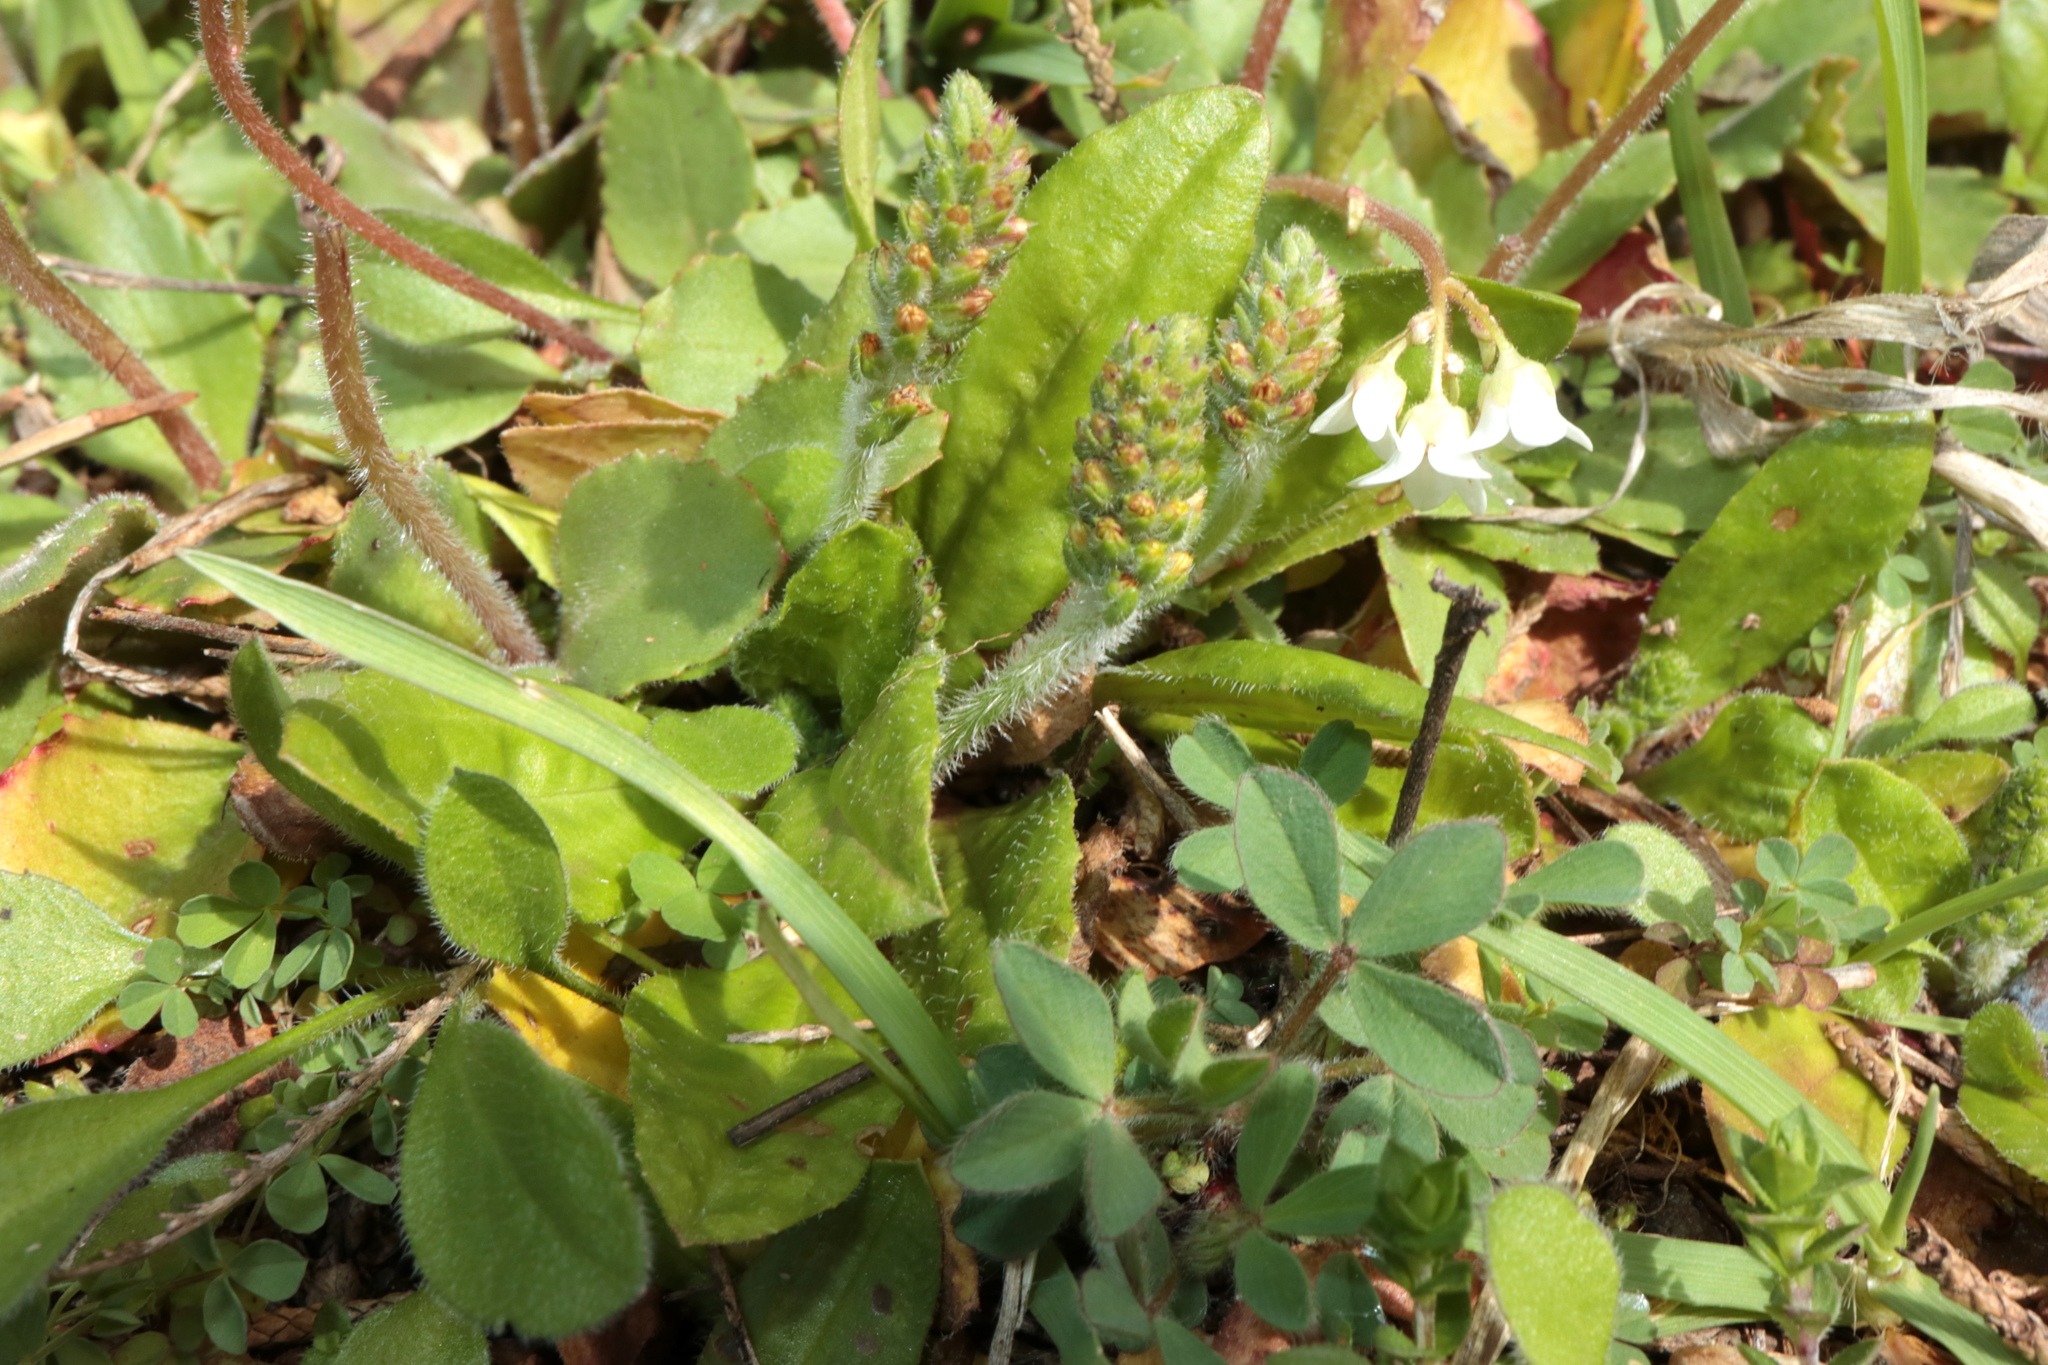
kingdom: Plantae
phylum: Tracheophyta
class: Magnoliopsida
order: Lamiales
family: Plantaginaceae
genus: Plantago
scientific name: Plantago virginica
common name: Hoary plantain
